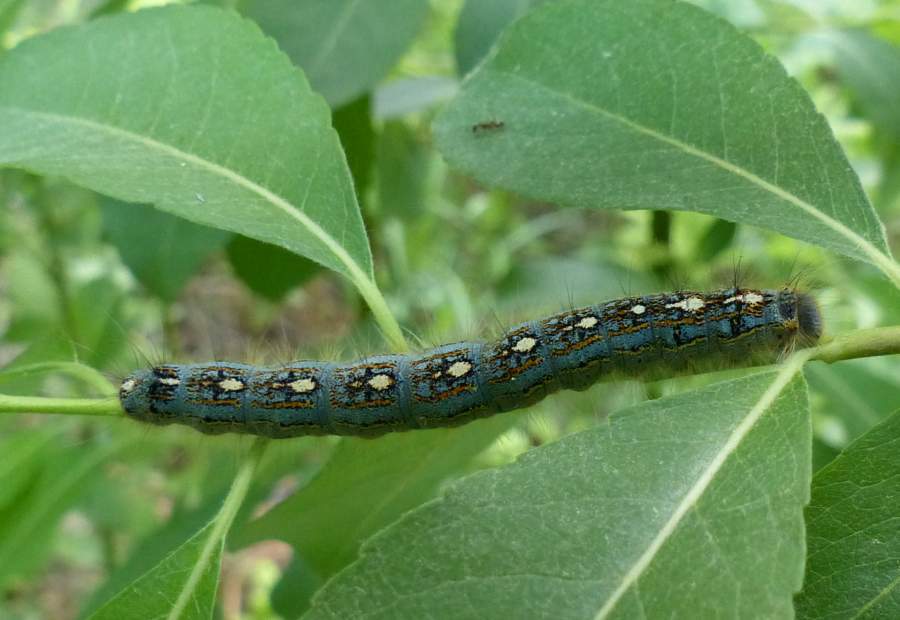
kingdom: Animalia
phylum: Arthropoda
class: Insecta
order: Lepidoptera
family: Lasiocampidae
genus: Malacosoma
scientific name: Malacosoma disstria
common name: Forest tent caterpillar
